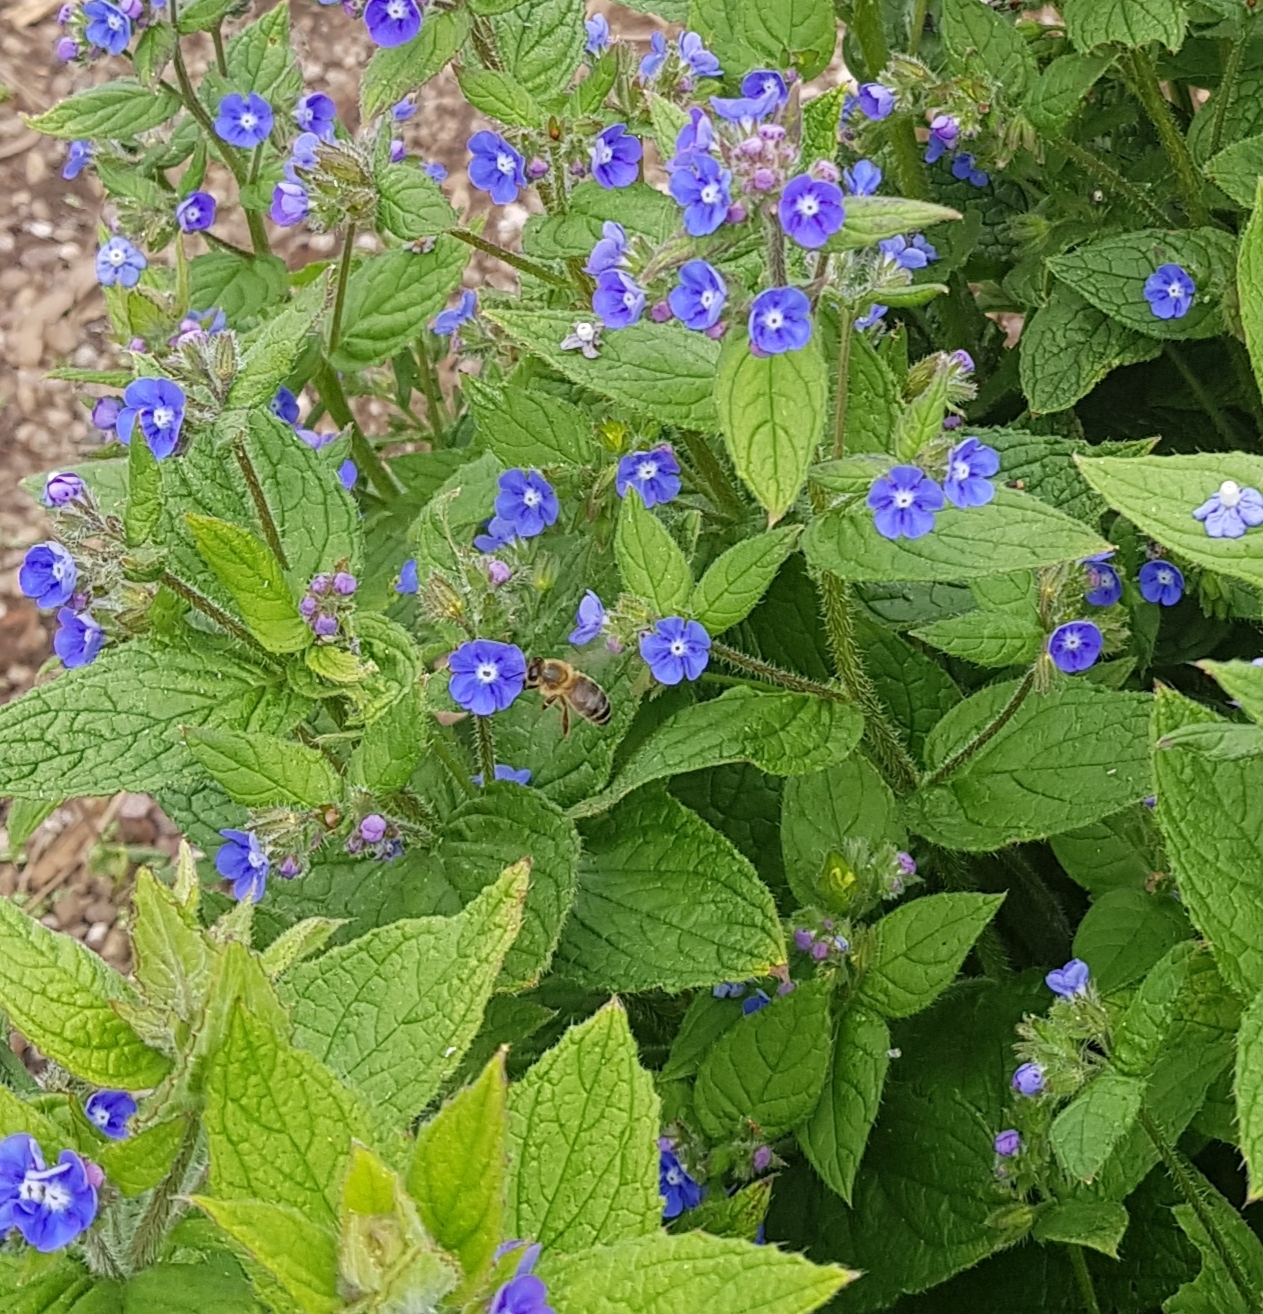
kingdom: Animalia
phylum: Arthropoda
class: Insecta
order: Hymenoptera
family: Apidae
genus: Apis
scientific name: Apis mellifera
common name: Honey bee
